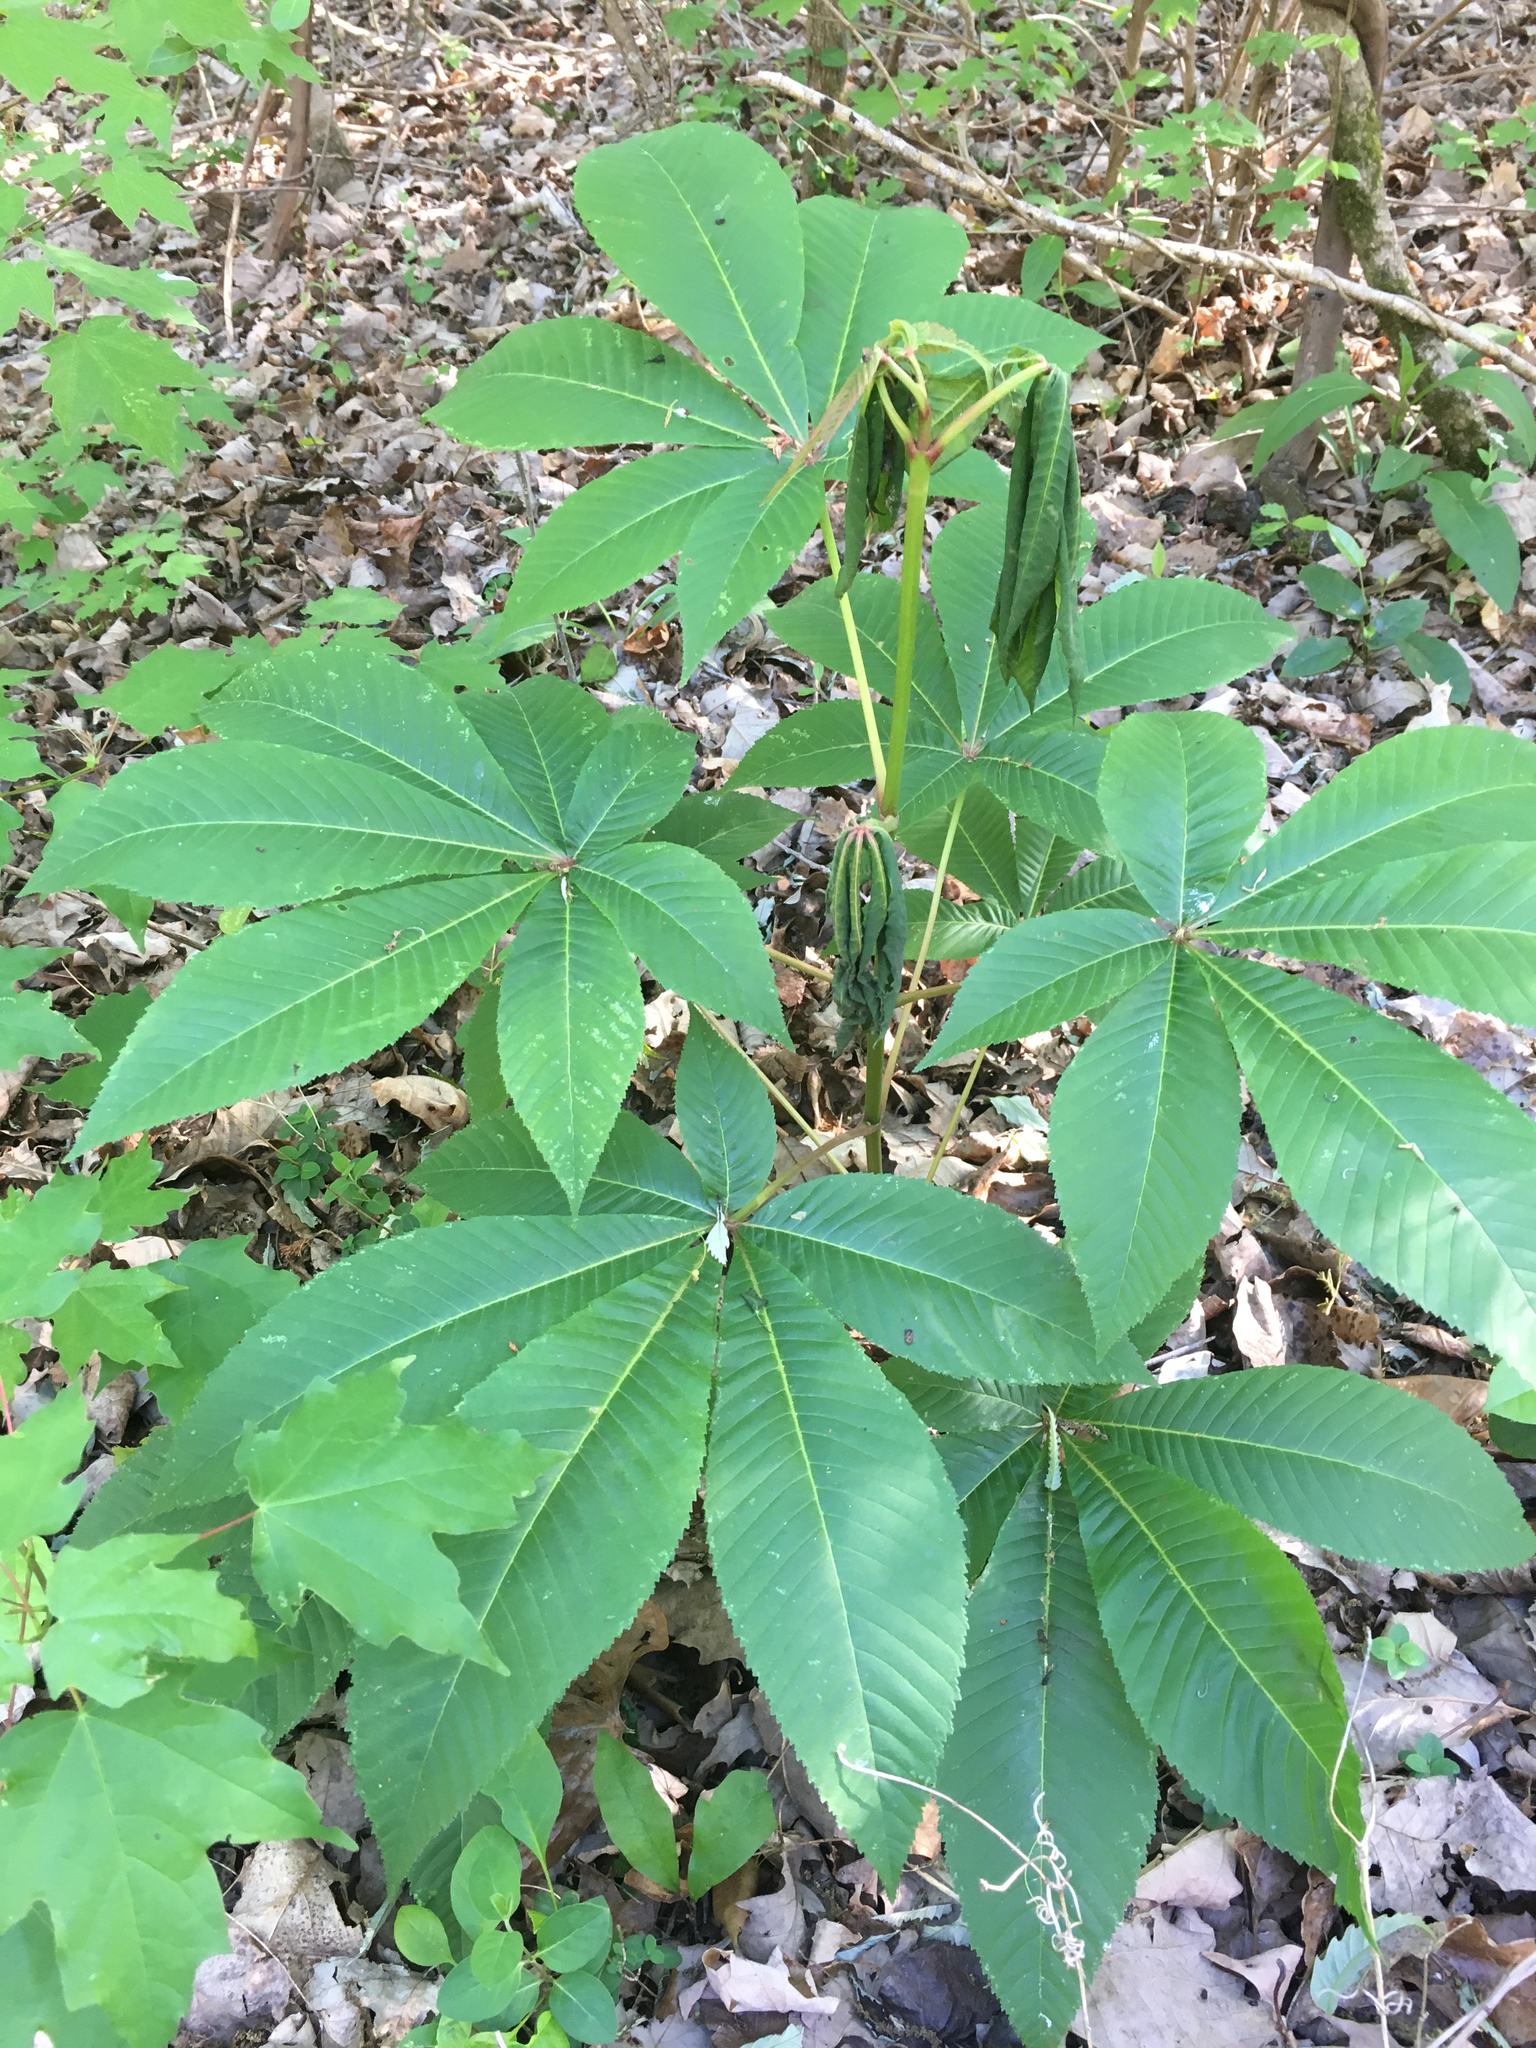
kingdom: Plantae
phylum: Tracheophyta
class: Magnoliopsida
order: Sapindales
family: Sapindaceae
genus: Aesculus
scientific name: Aesculus pavia
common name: Red buckeye
